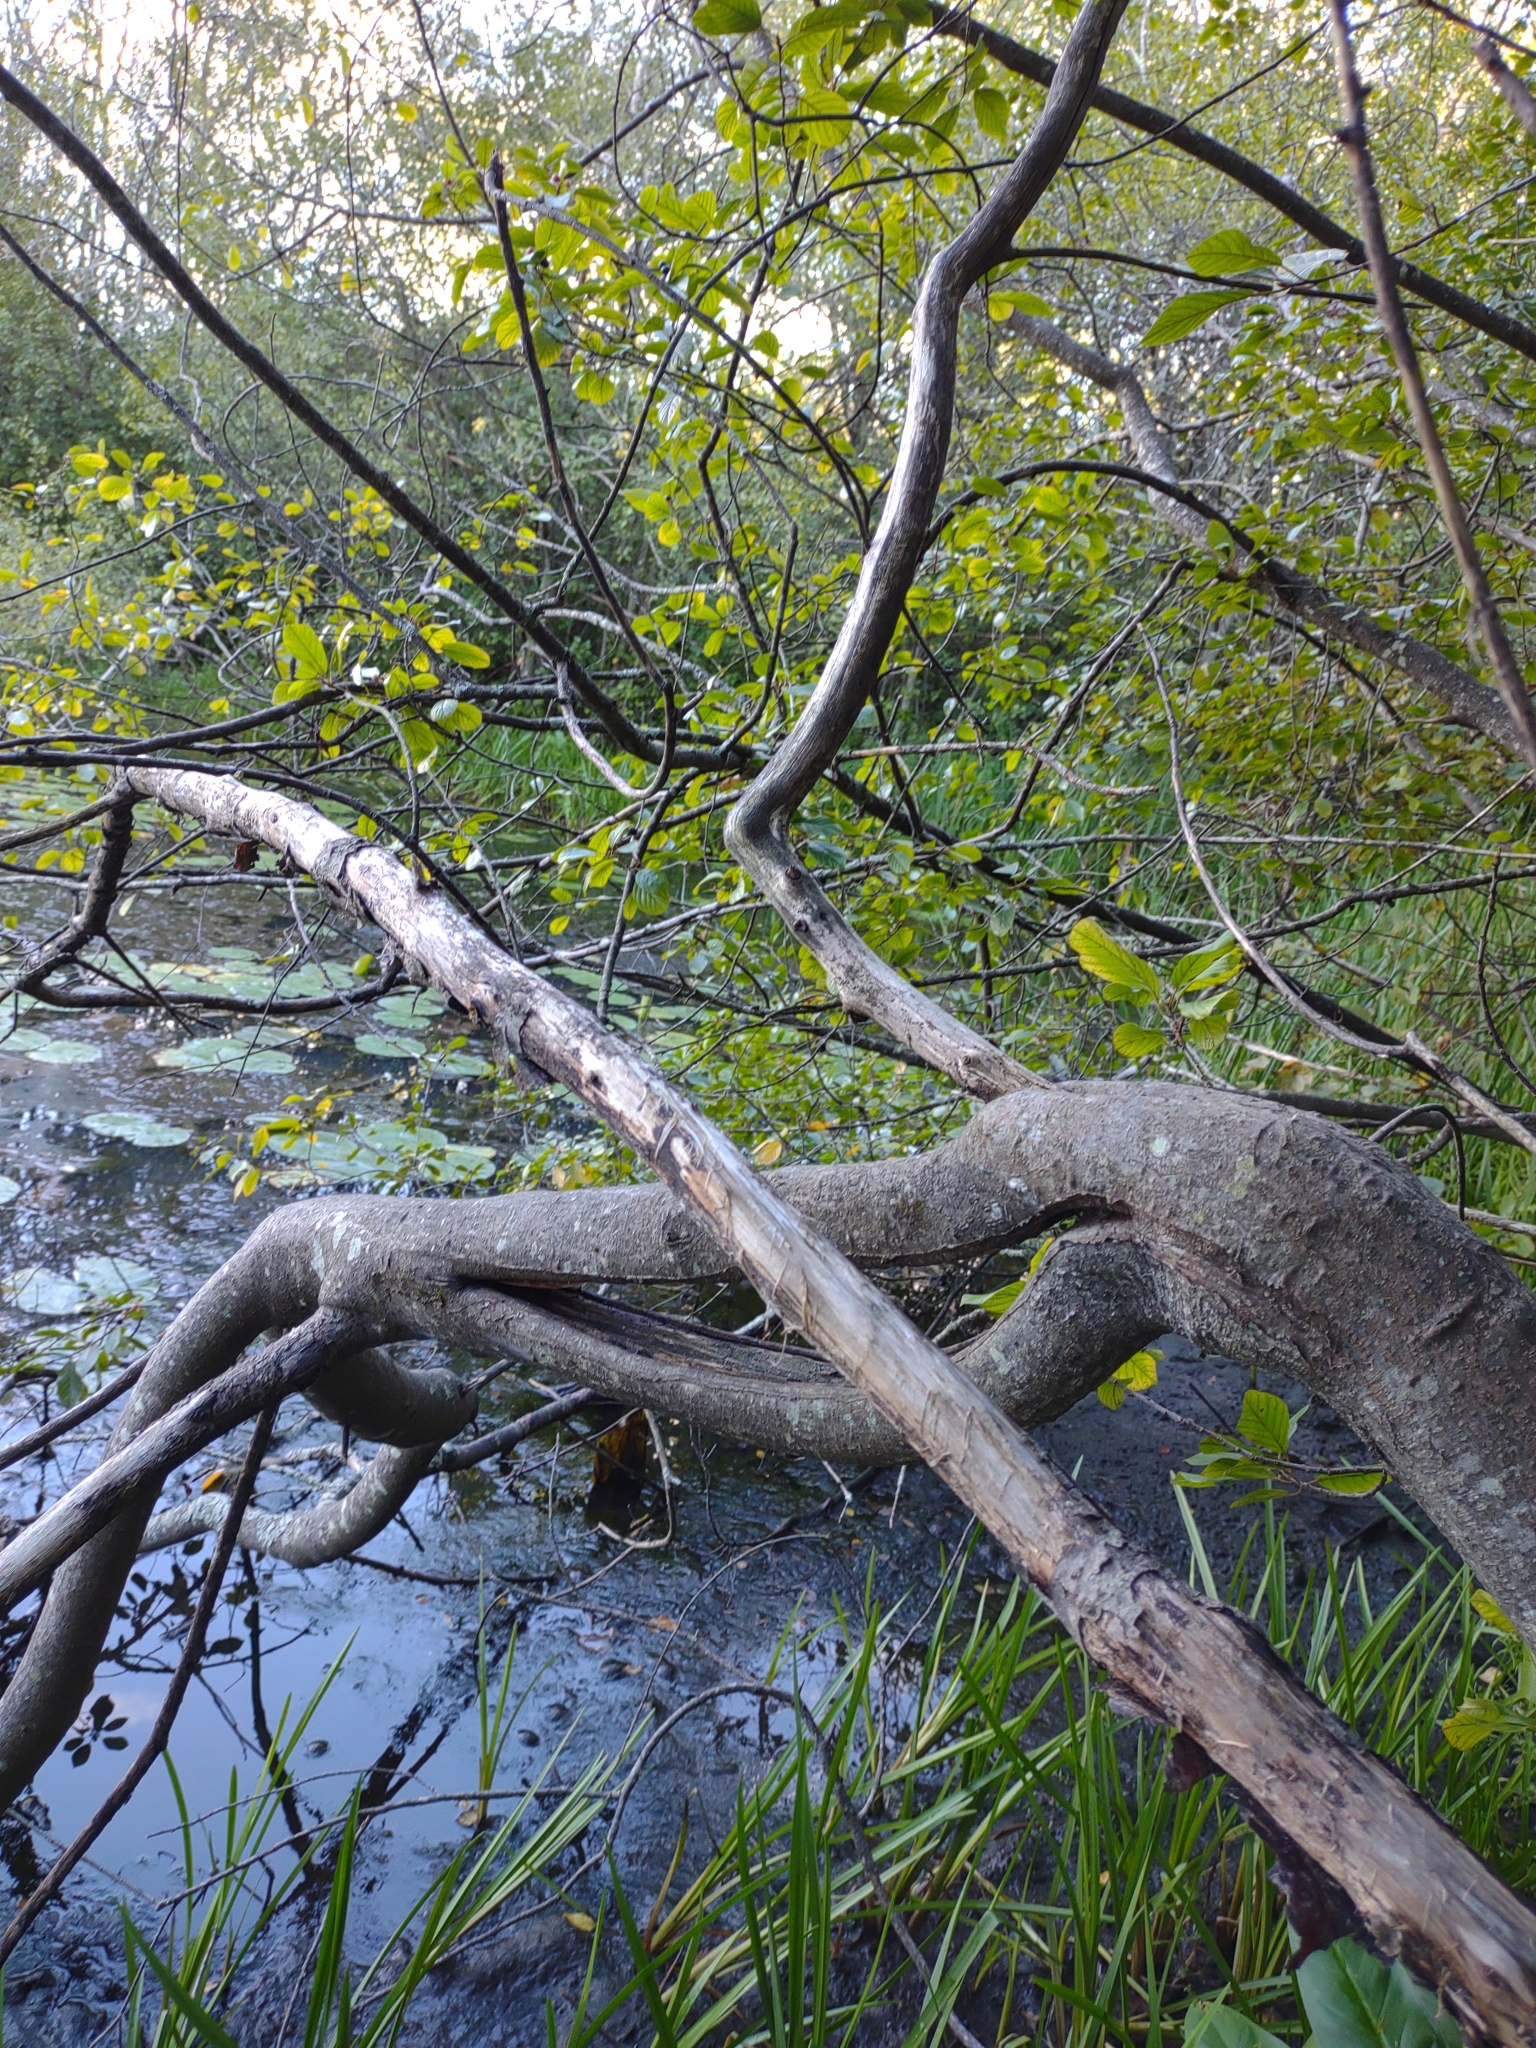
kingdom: Plantae
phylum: Tracheophyta
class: Magnoliopsida
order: Rosales
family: Rhamnaceae
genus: Frangula
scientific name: Frangula alnus
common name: Alder buckthorn
